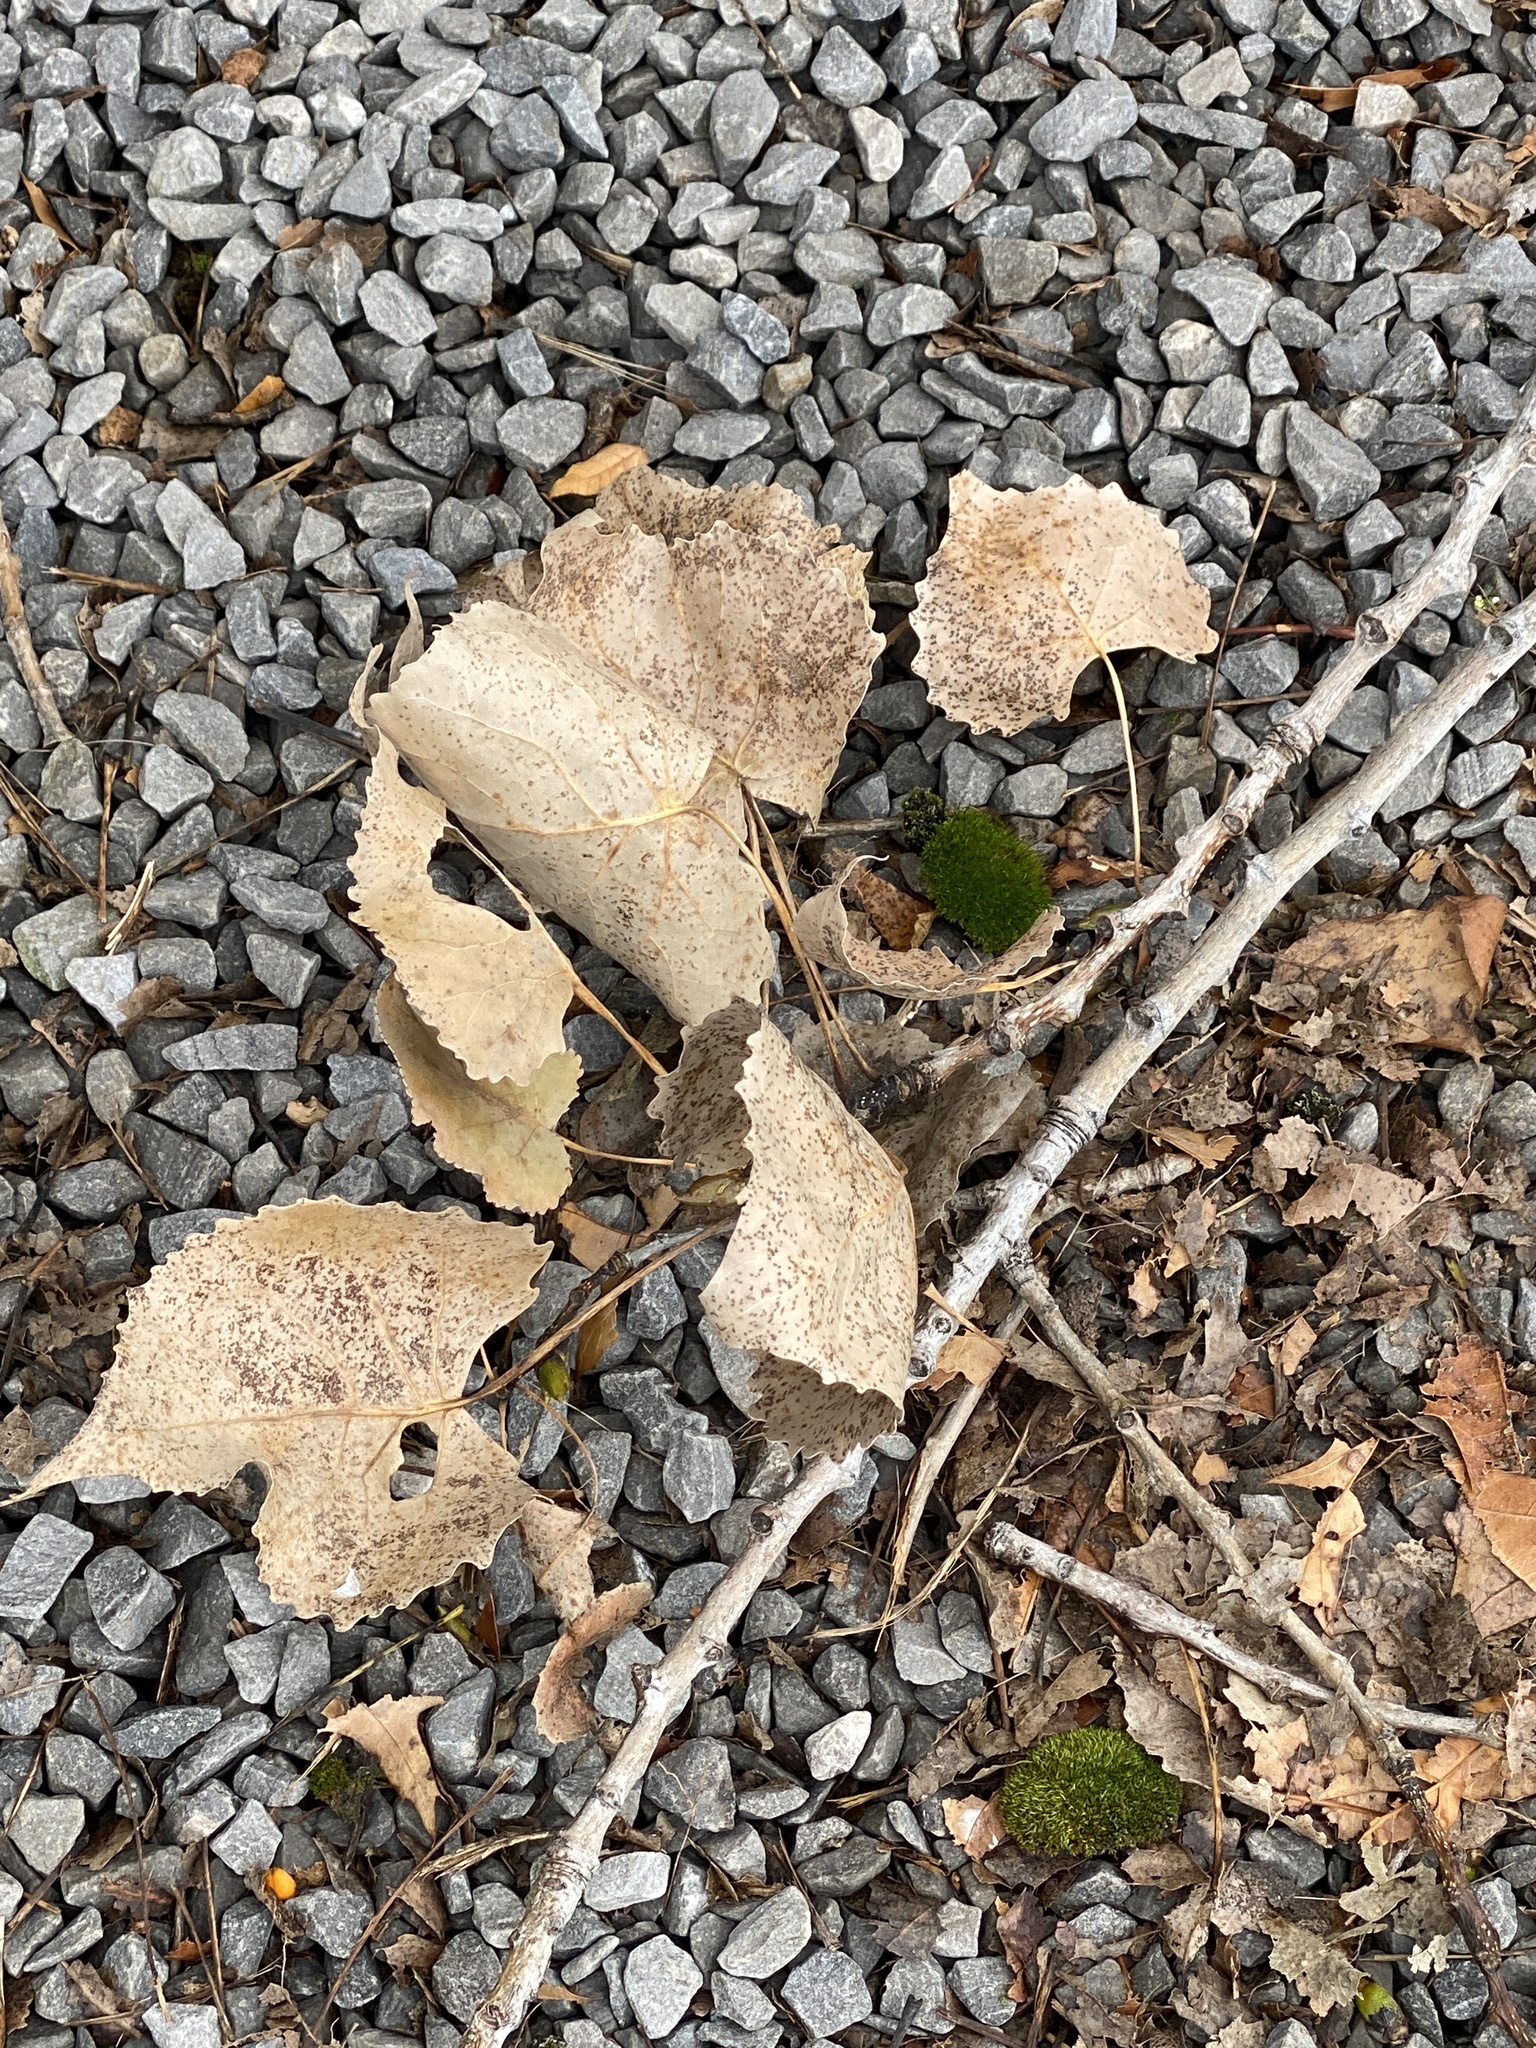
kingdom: Plantae
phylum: Tracheophyta
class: Magnoliopsida
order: Malpighiales
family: Salicaceae
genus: Populus
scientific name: Populus deltoides
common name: Eastern cottonwood
